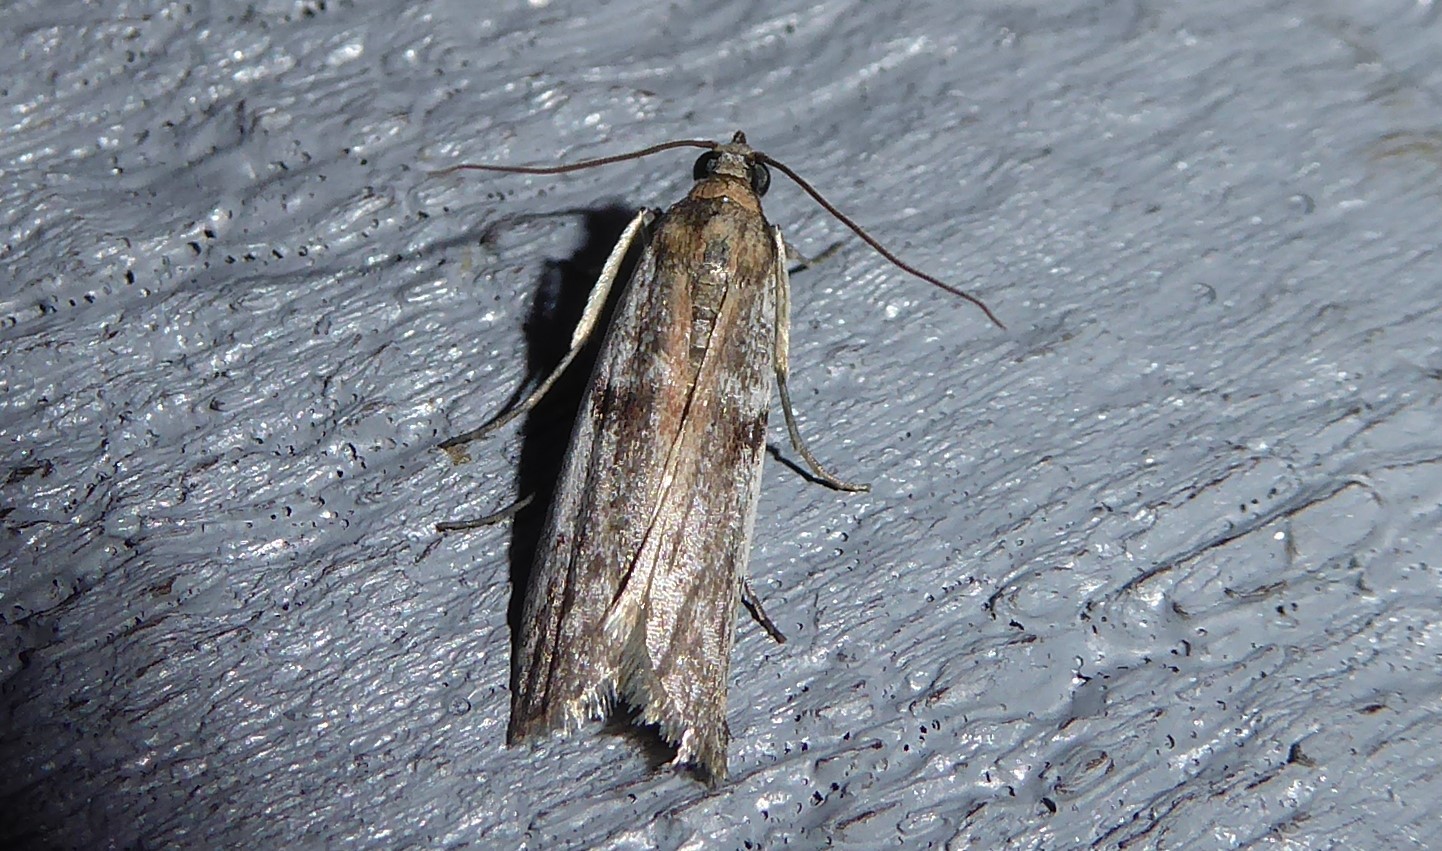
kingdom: Animalia
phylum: Arthropoda
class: Insecta
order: Lepidoptera
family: Pyralidae
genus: Patagoniodes
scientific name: Patagoniodes farinaria
